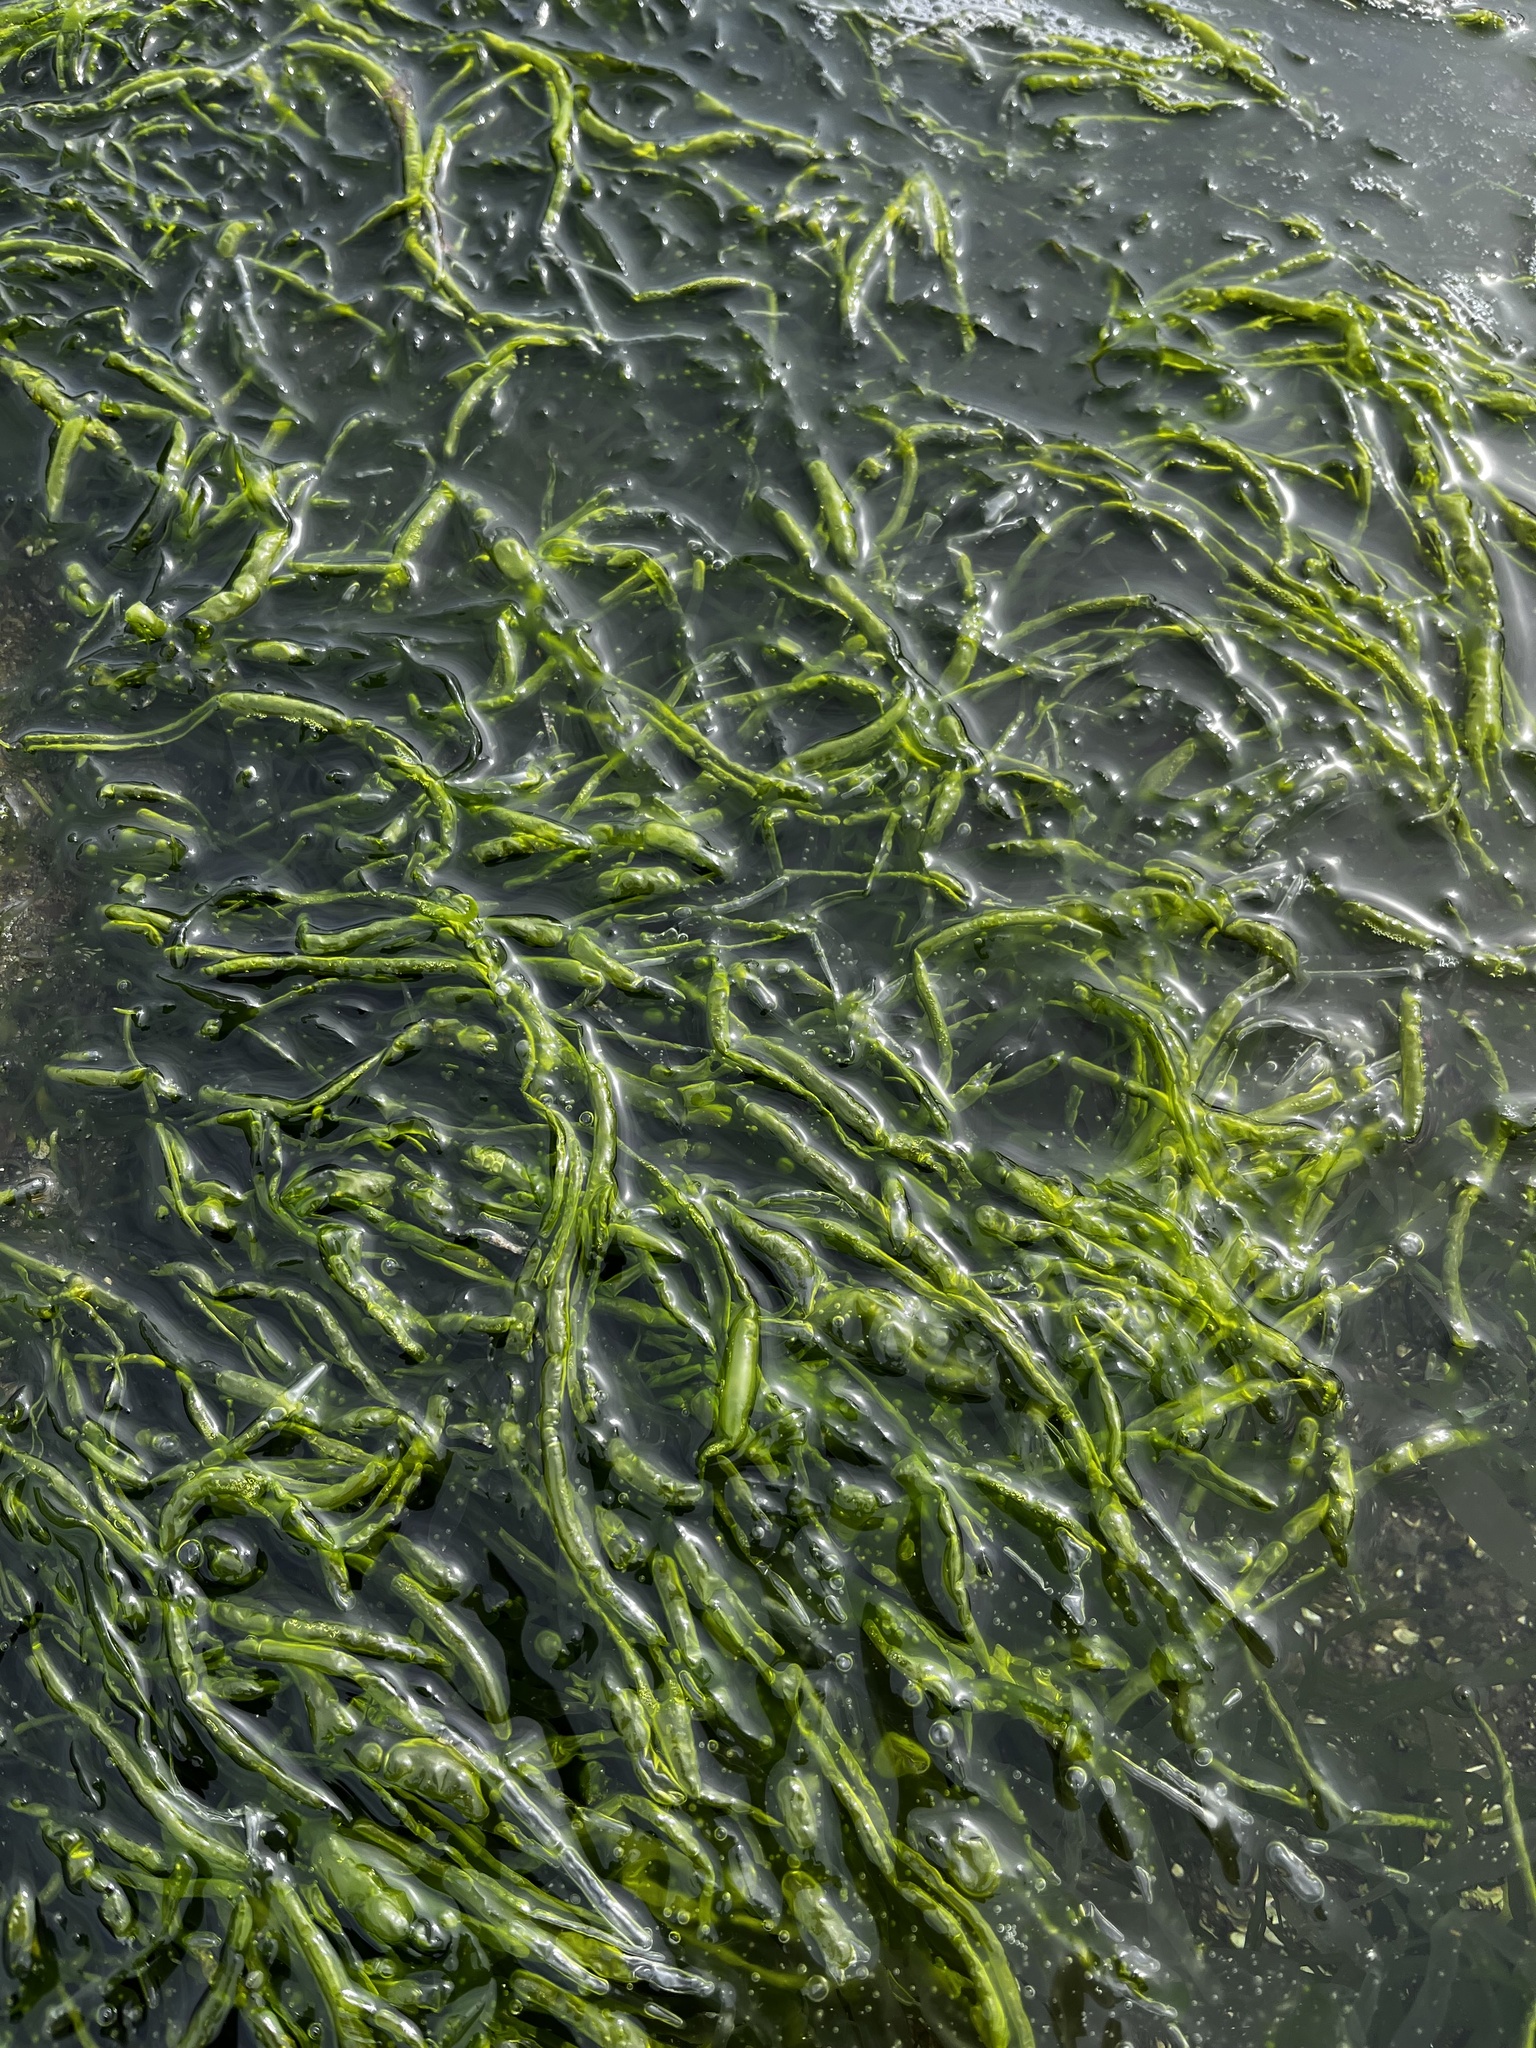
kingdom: Plantae
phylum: Chlorophyta
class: Ulvophyceae
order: Ulvales
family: Ulvaceae
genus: Ulva
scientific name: Ulva intestinalis
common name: Gut weed
